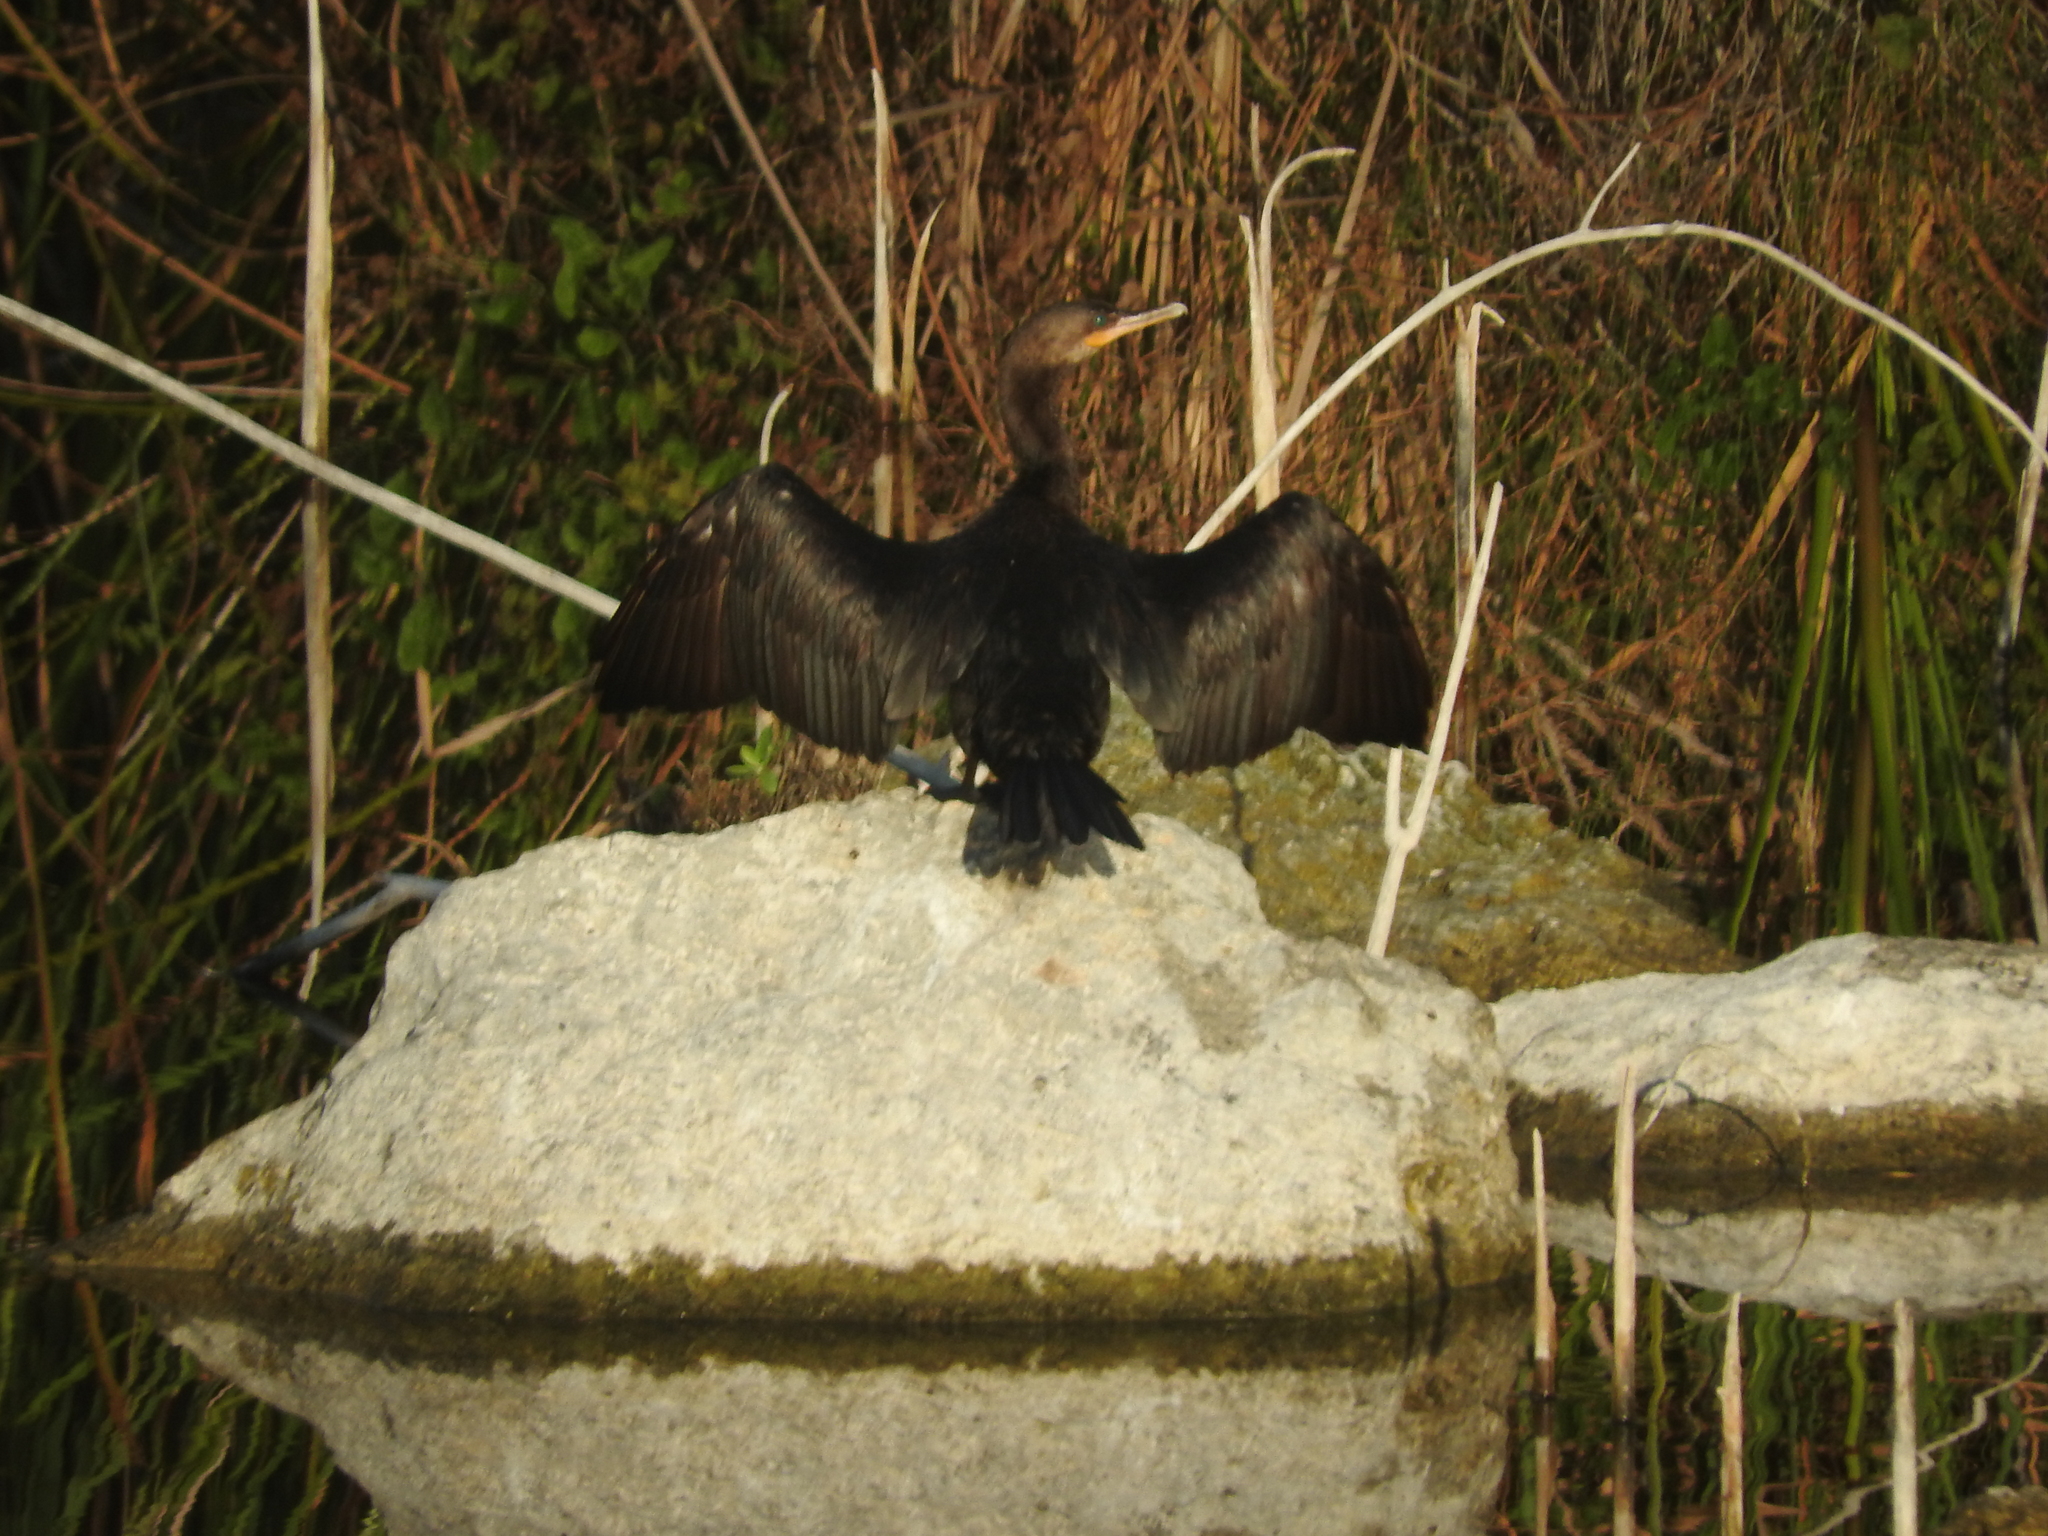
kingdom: Animalia
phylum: Chordata
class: Aves
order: Suliformes
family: Phalacrocoracidae
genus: Phalacrocorax
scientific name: Phalacrocorax brasilianus
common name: Neotropic cormorant
